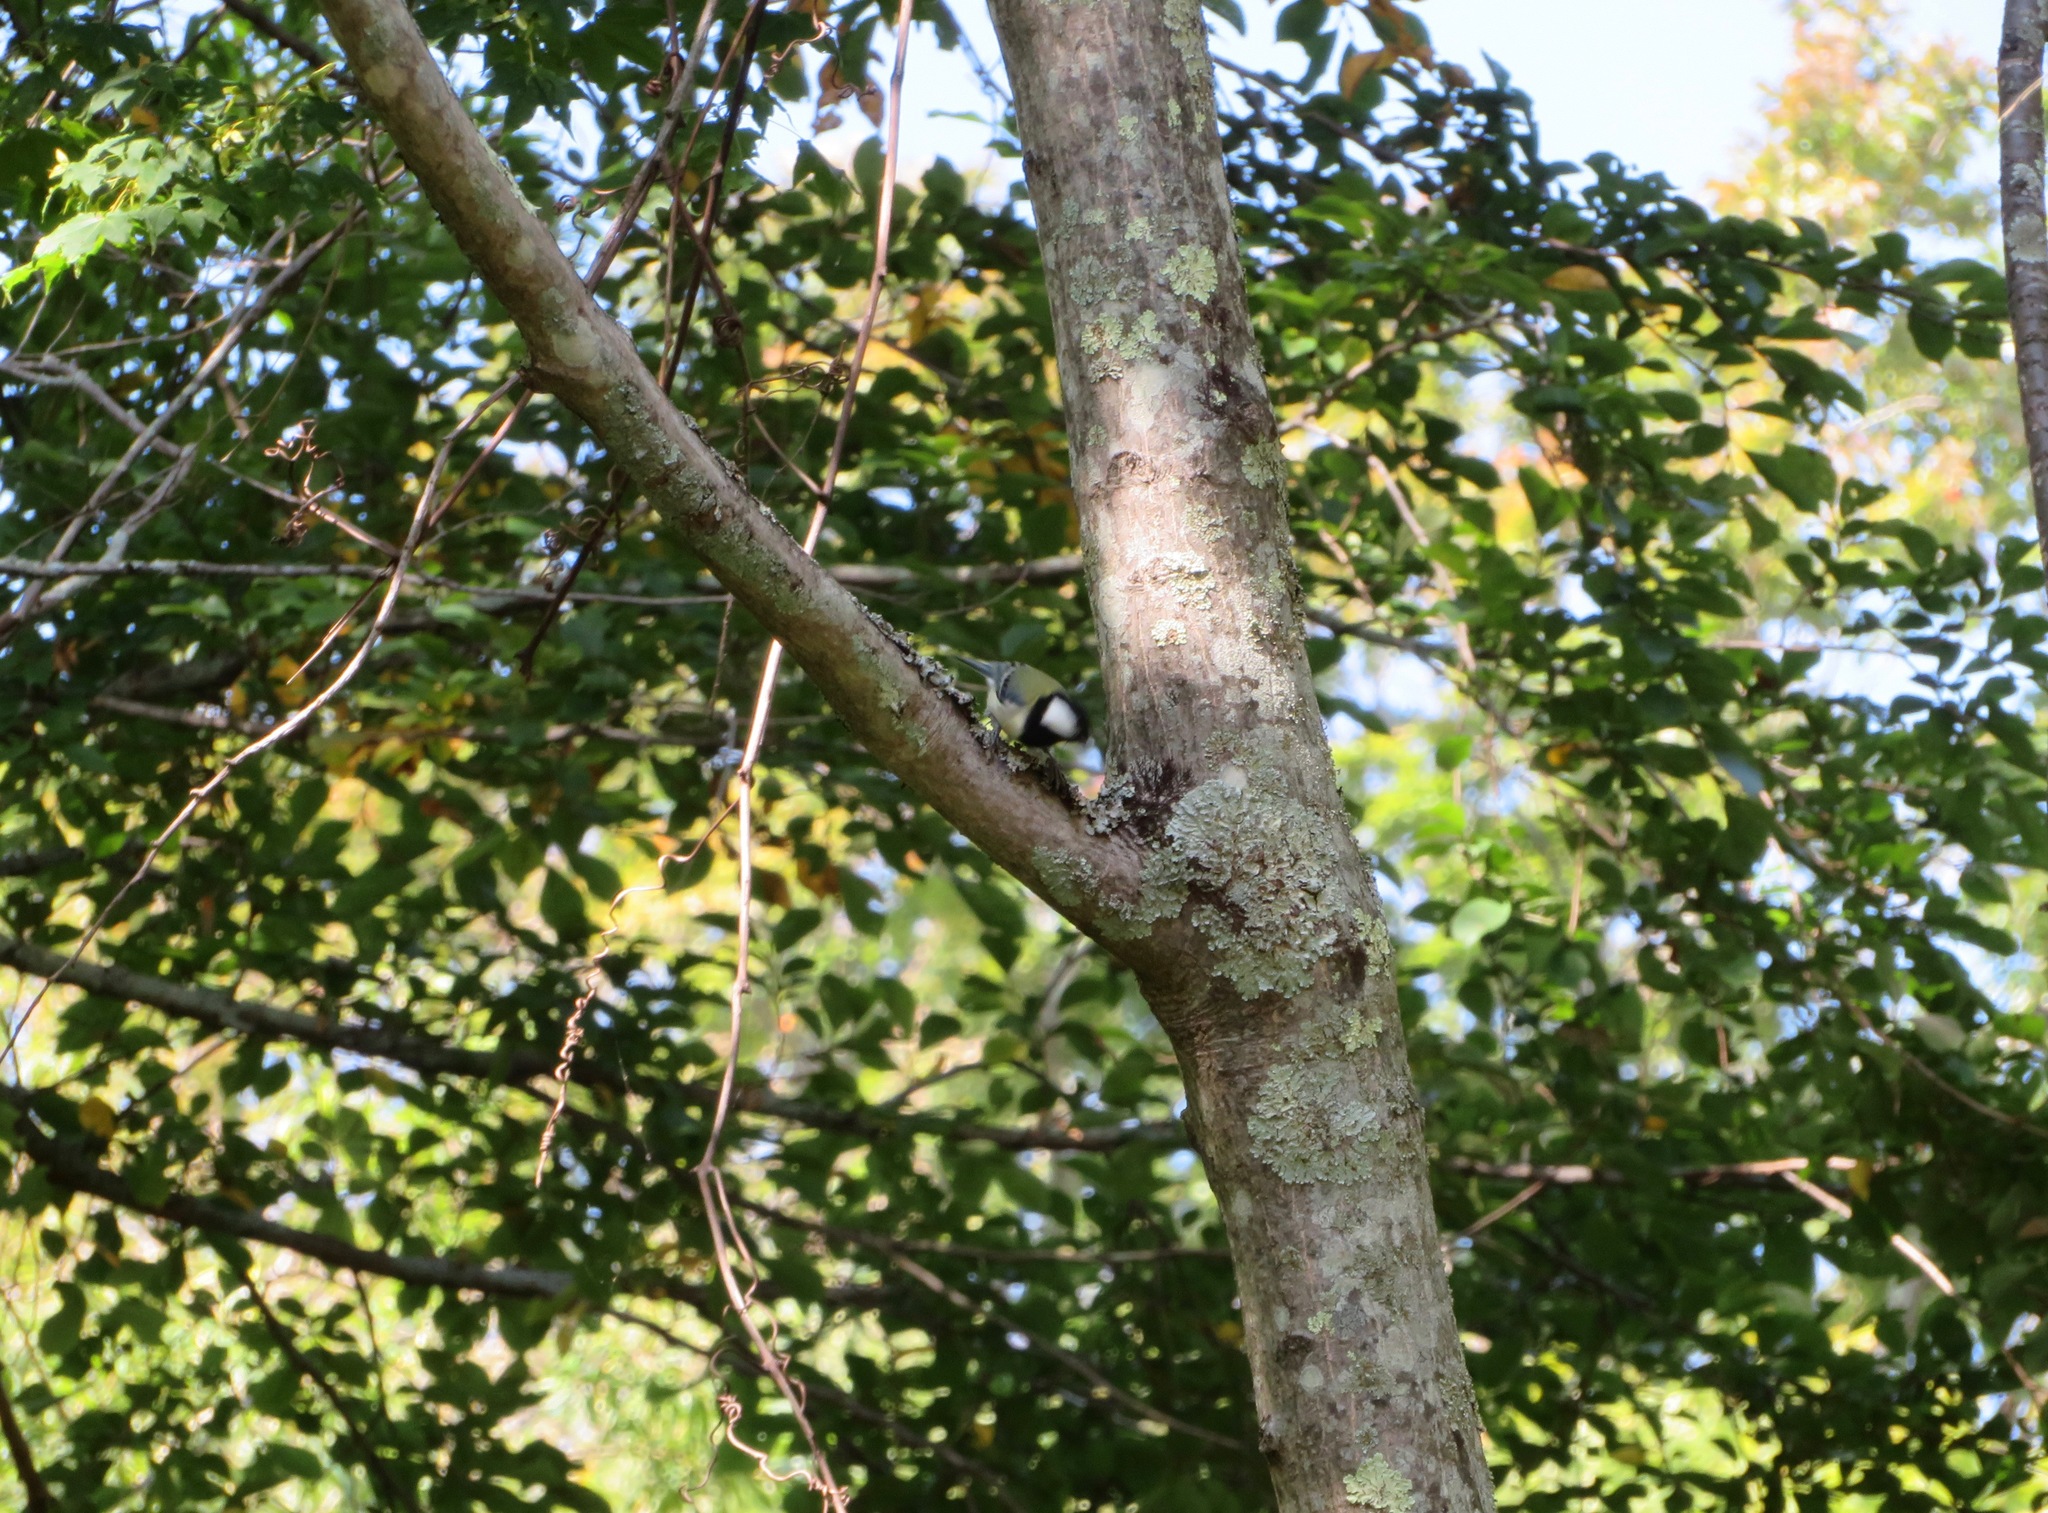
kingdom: Animalia
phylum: Chordata
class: Aves
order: Passeriformes
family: Paridae
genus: Parus
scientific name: Parus minor
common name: Japanese tit
